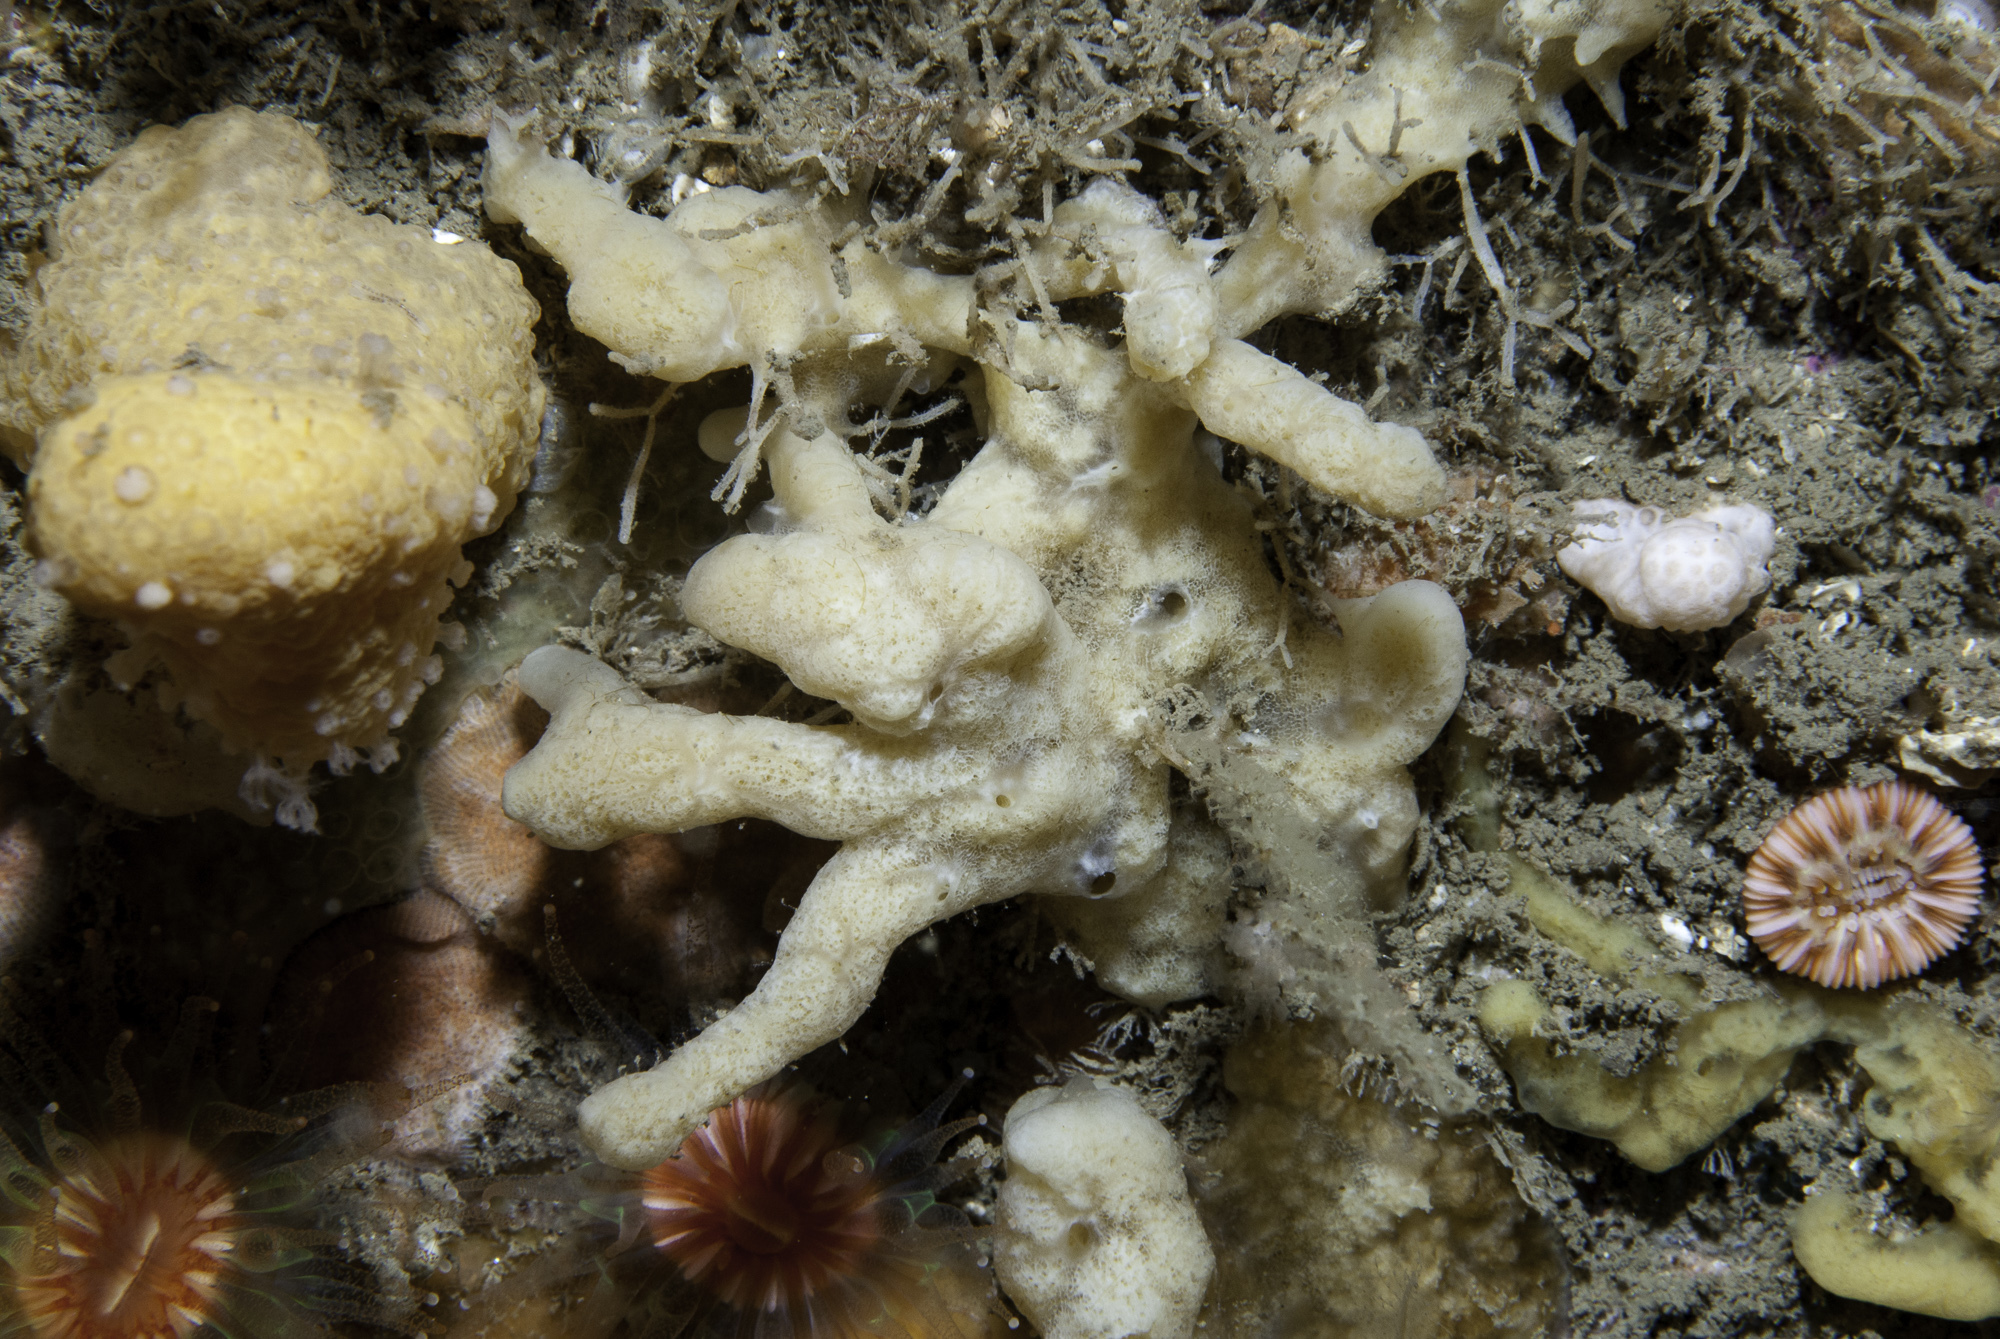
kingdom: Animalia
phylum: Porifera
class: Demospongiae
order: Poecilosclerida
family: Acarnidae
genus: Iophon
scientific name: Iophon nigricans
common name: Yellow-fingered horny sponge
